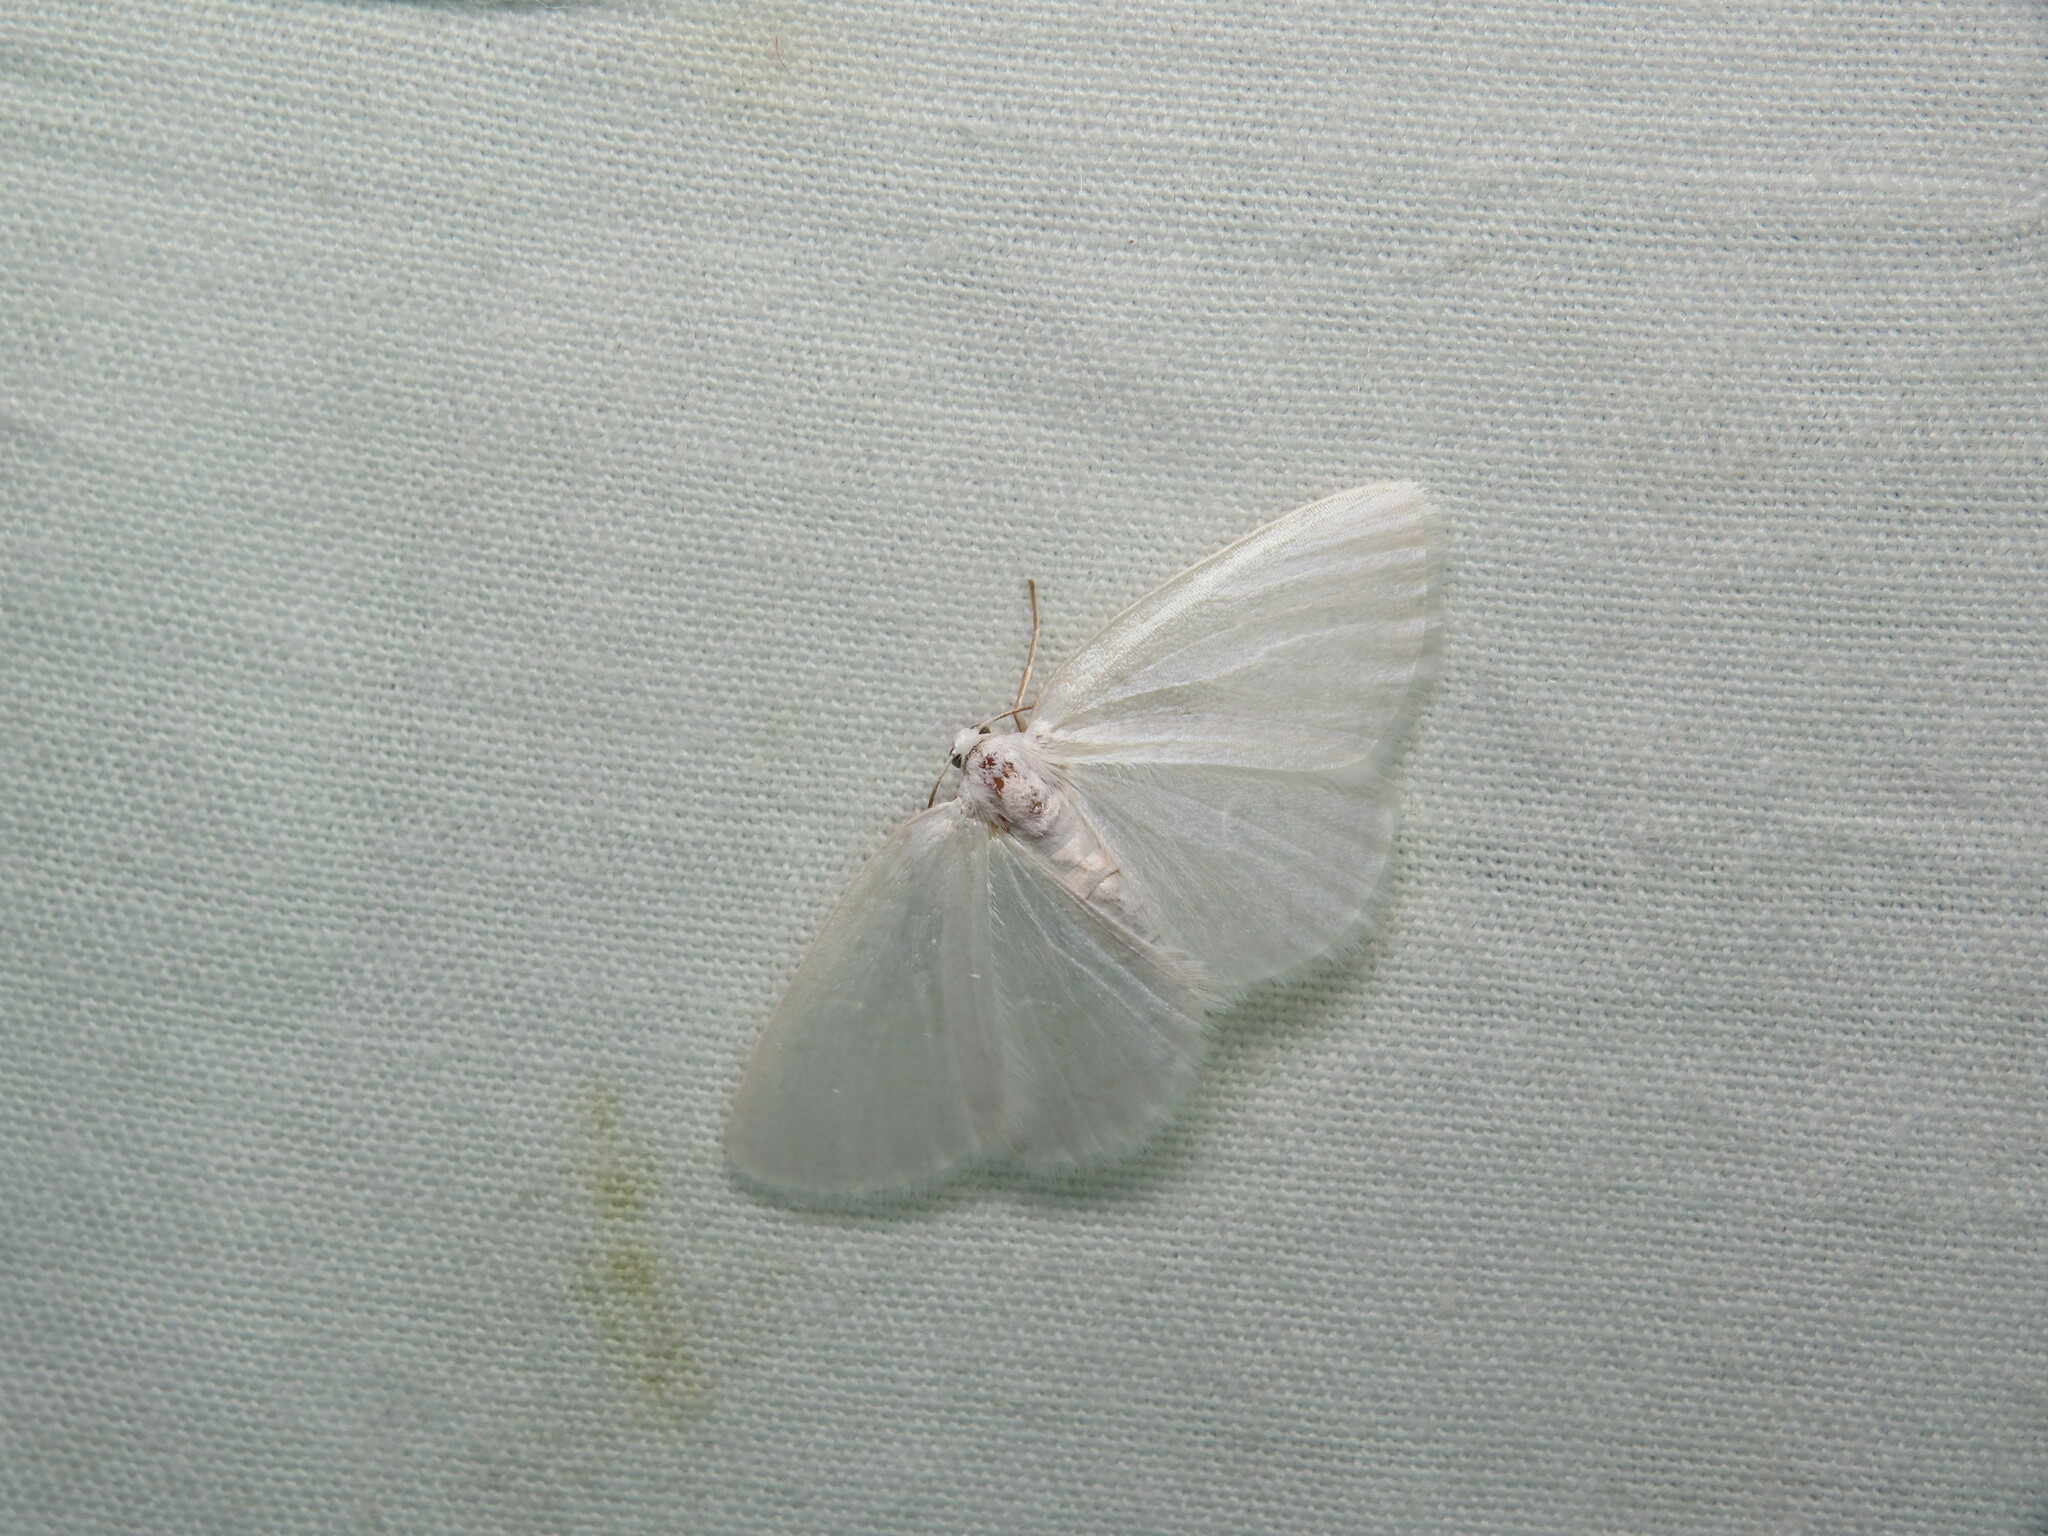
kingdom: Animalia
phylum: Arthropoda
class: Insecta
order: Lepidoptera
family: Geometridae
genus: Lomographa
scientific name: Lomographa vestaliata
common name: White spring moth
